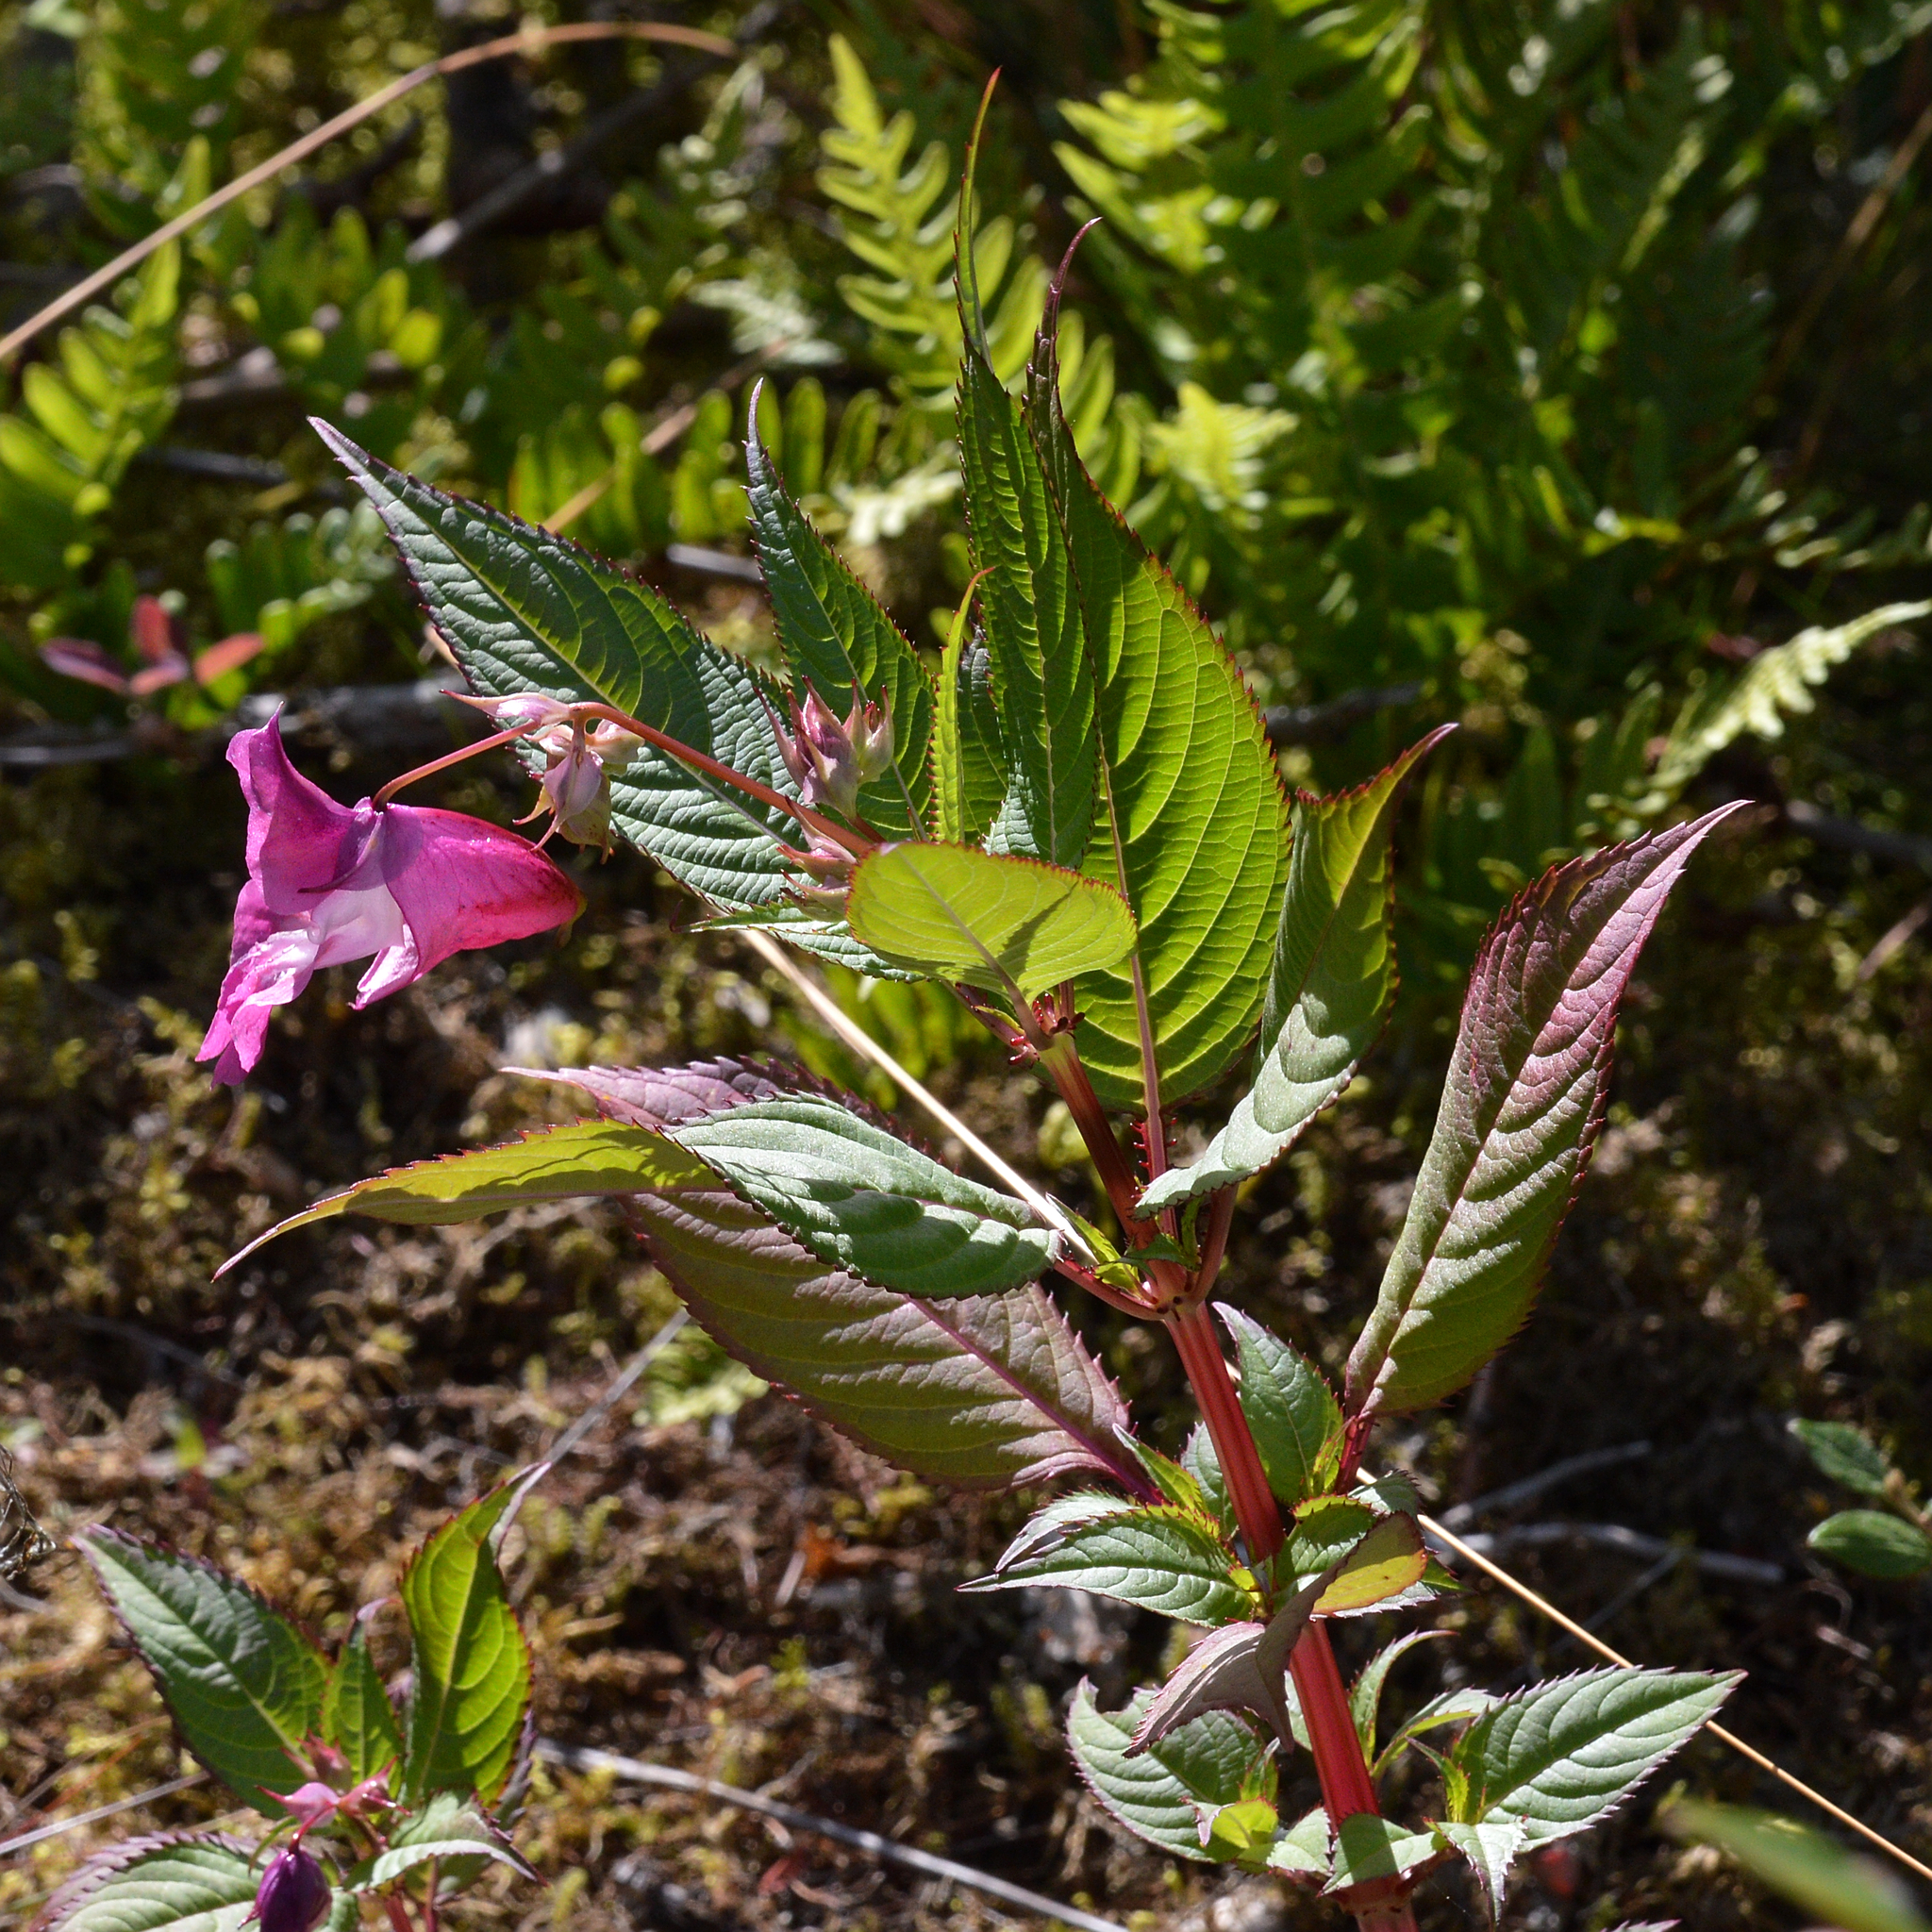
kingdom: Plantae
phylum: Tracheophyta
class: Magnoliopsida
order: Ericales
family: Balsaminaceae
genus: Impatiens
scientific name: Impatiens glandulifera
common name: Himalayan balsam
